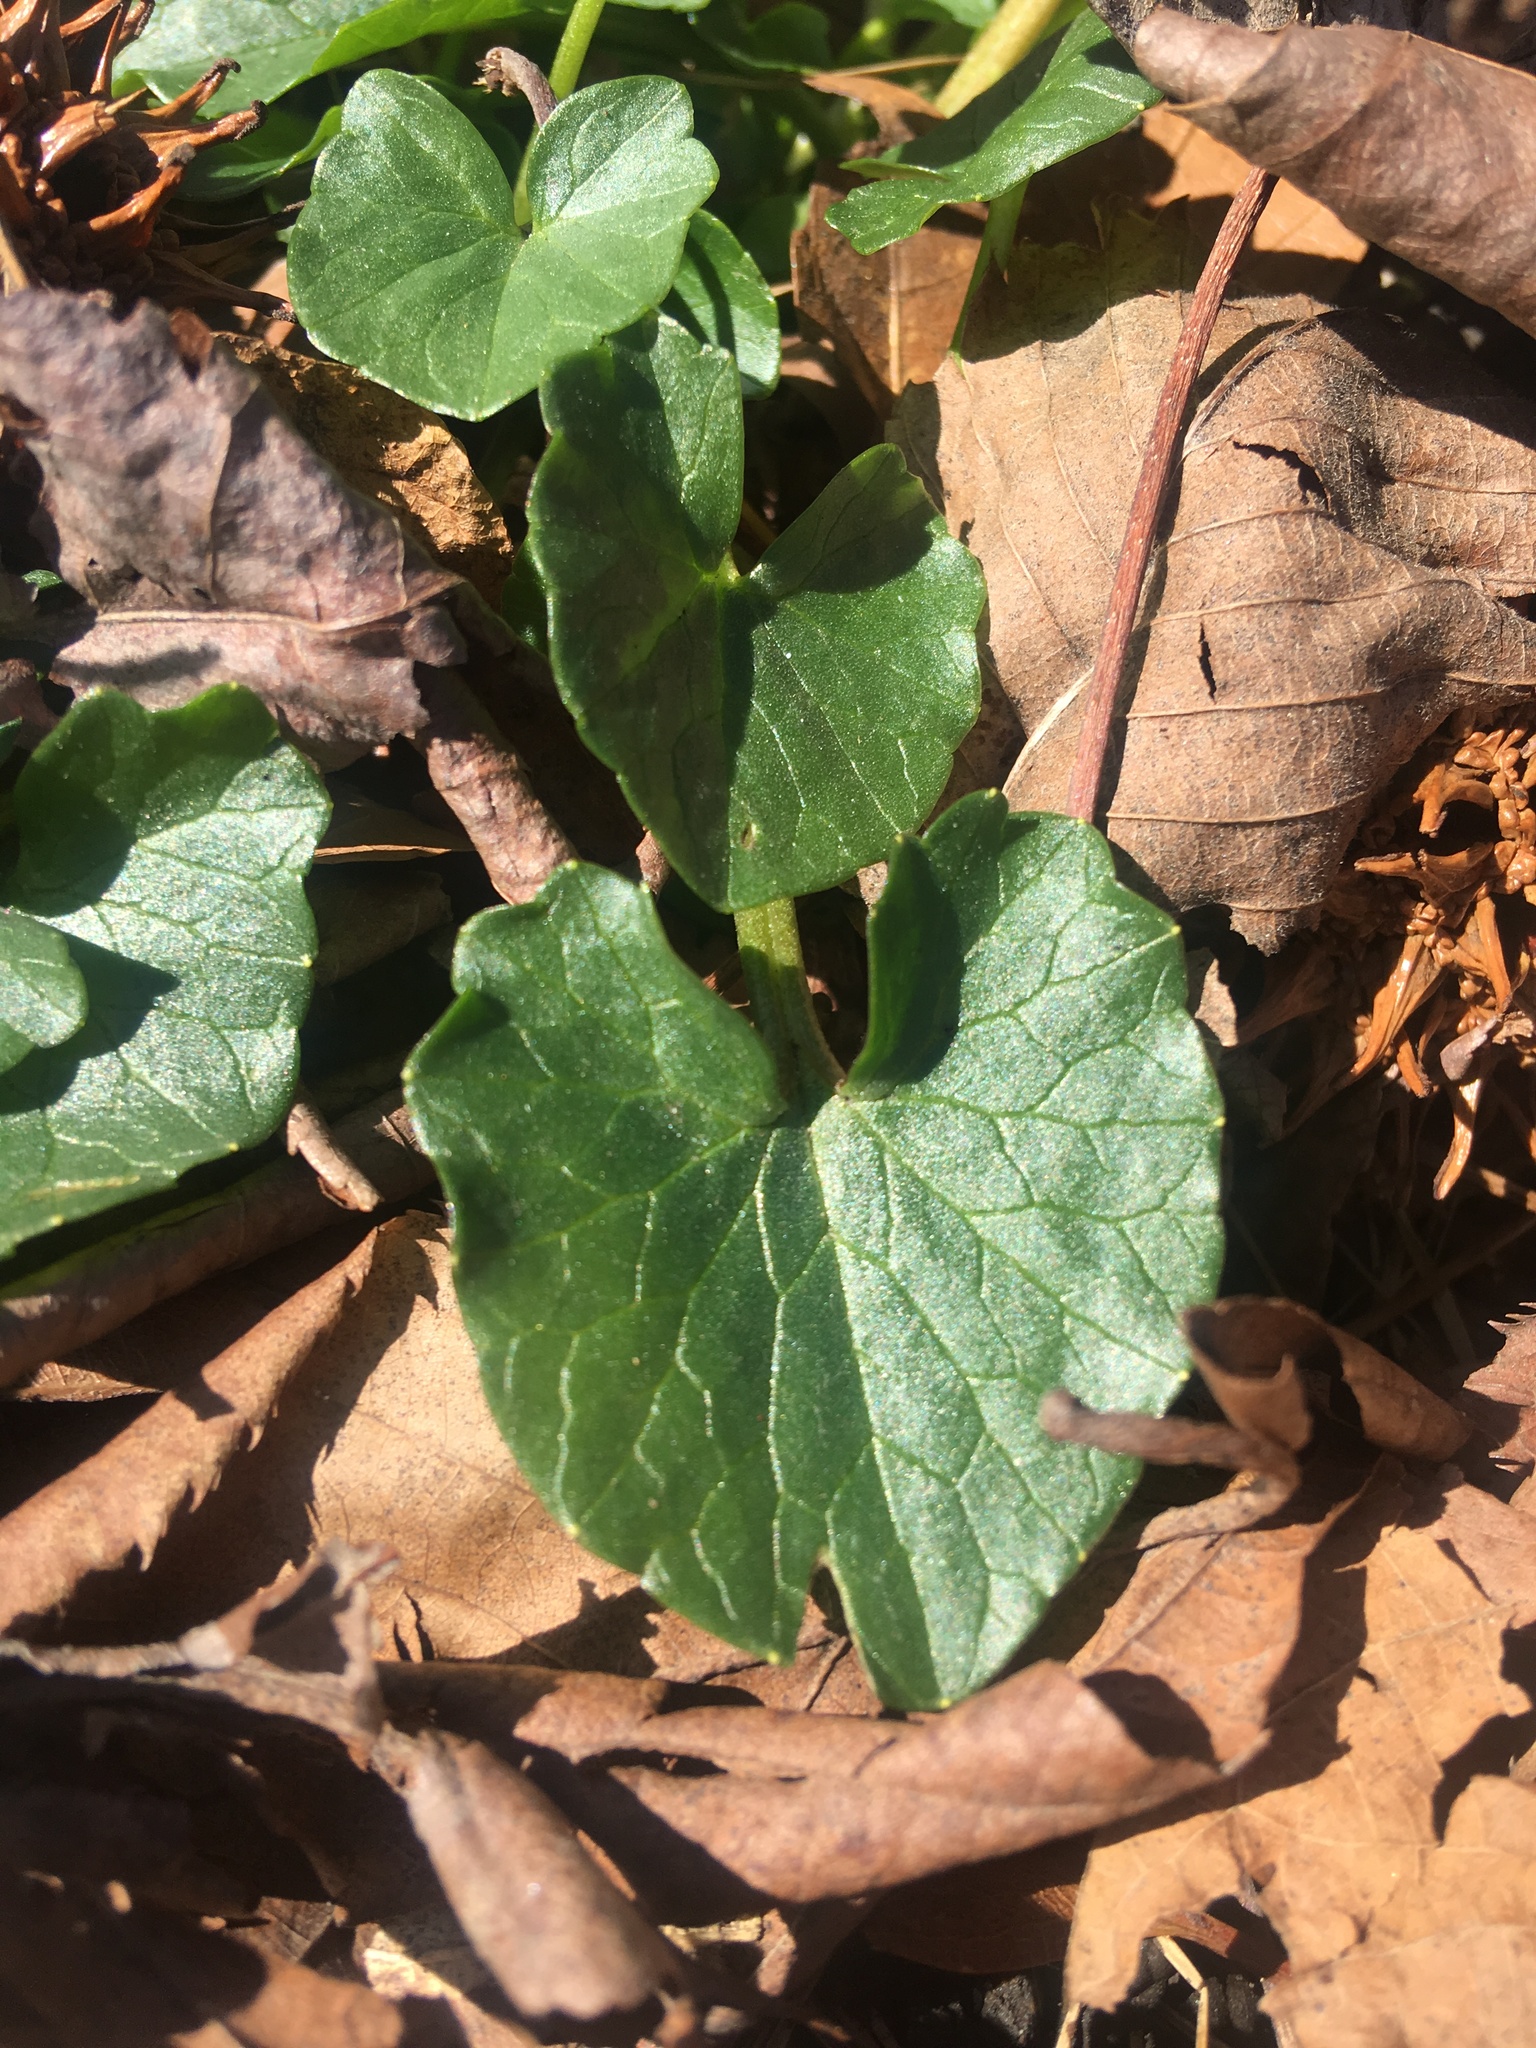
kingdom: Plantae
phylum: Tracheophyta
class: Magnoliopsida
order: Ranunculales
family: Ranunculaceae
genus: Ficaria
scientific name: Ficaria verna
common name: Lesser celandine
